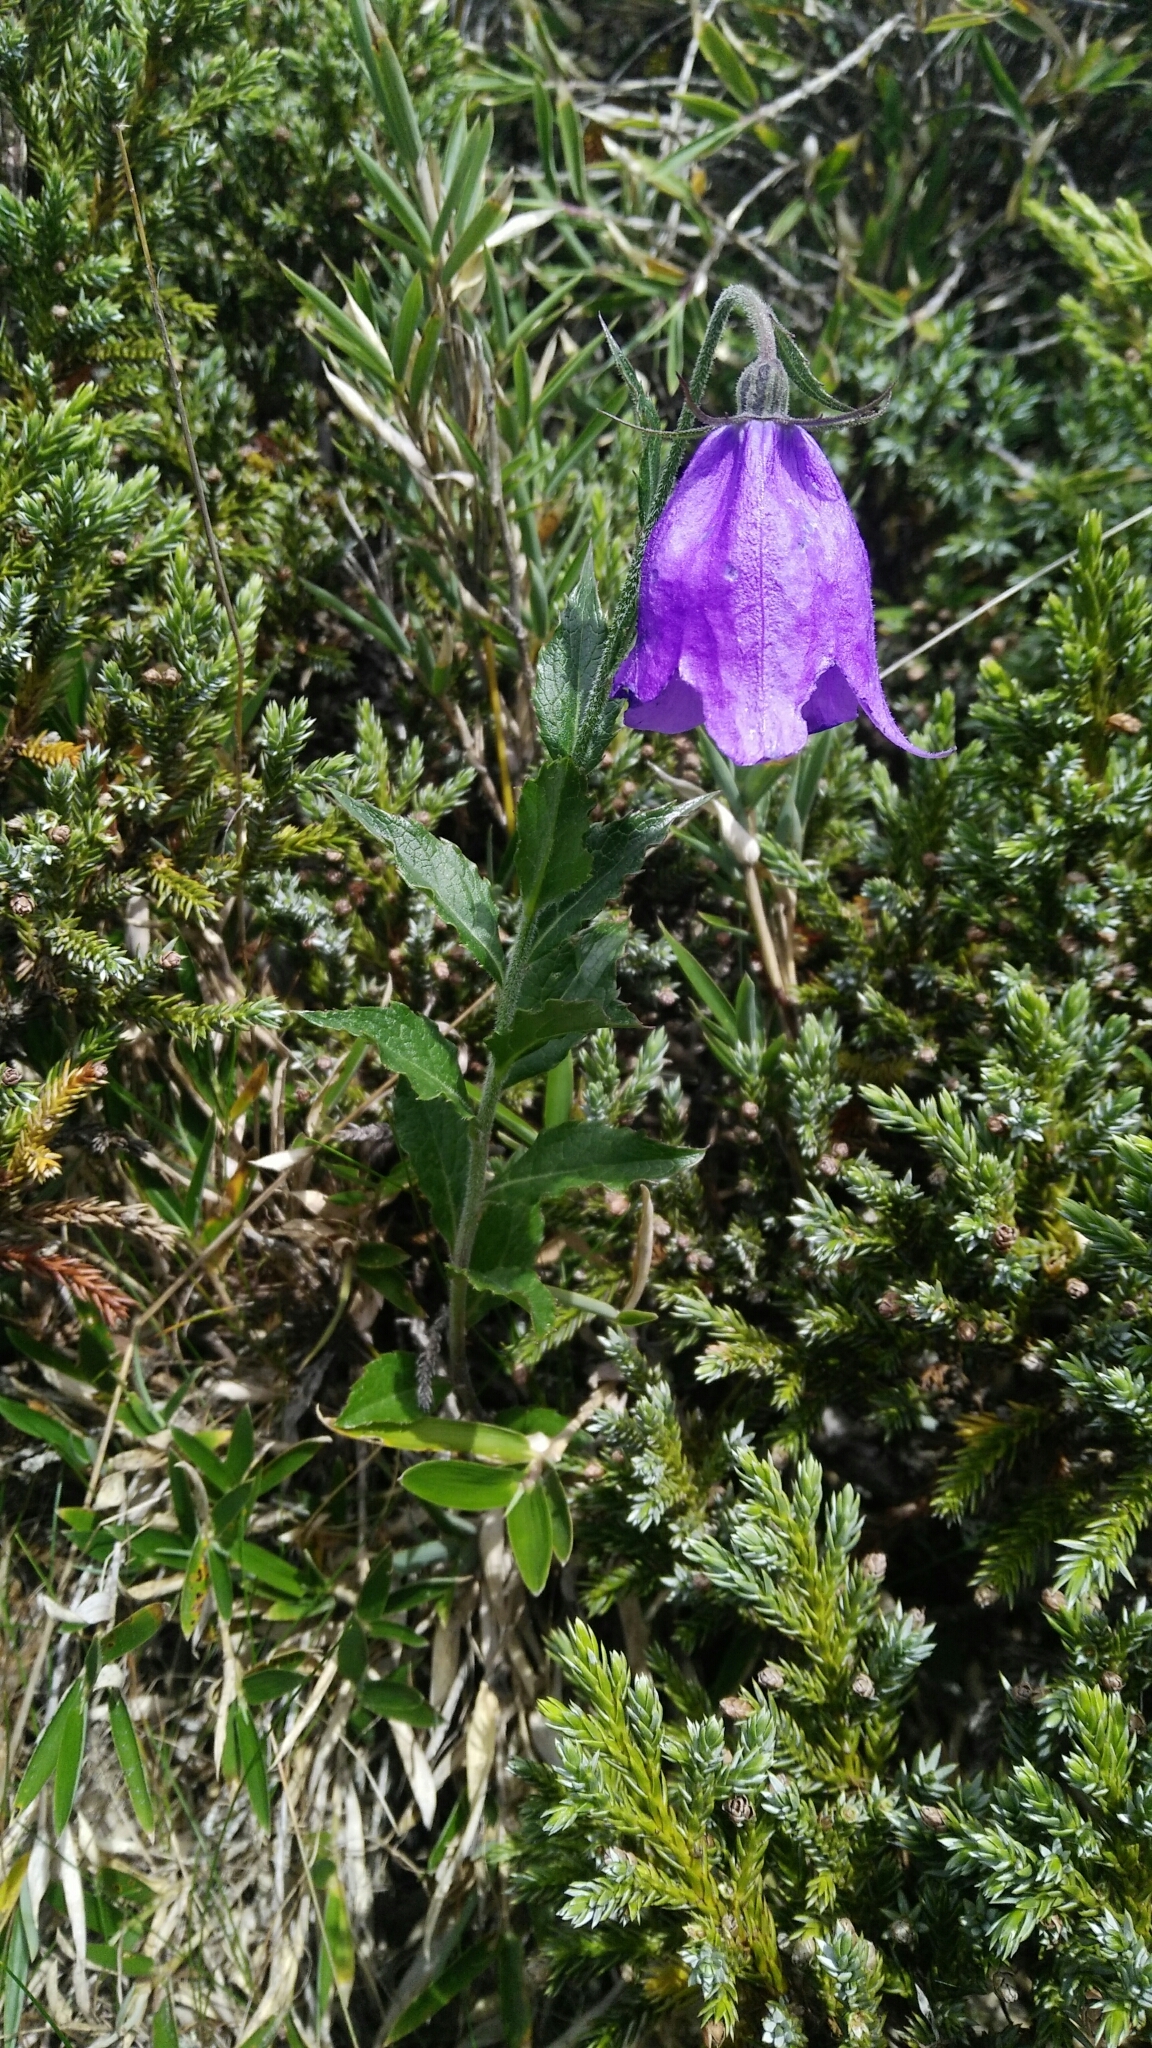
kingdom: Plantae
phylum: Tracheophyta
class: Magnoliopsida
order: Asterales
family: Campanulaceae
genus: Adenophora
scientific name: Adenophora morrisonensis
